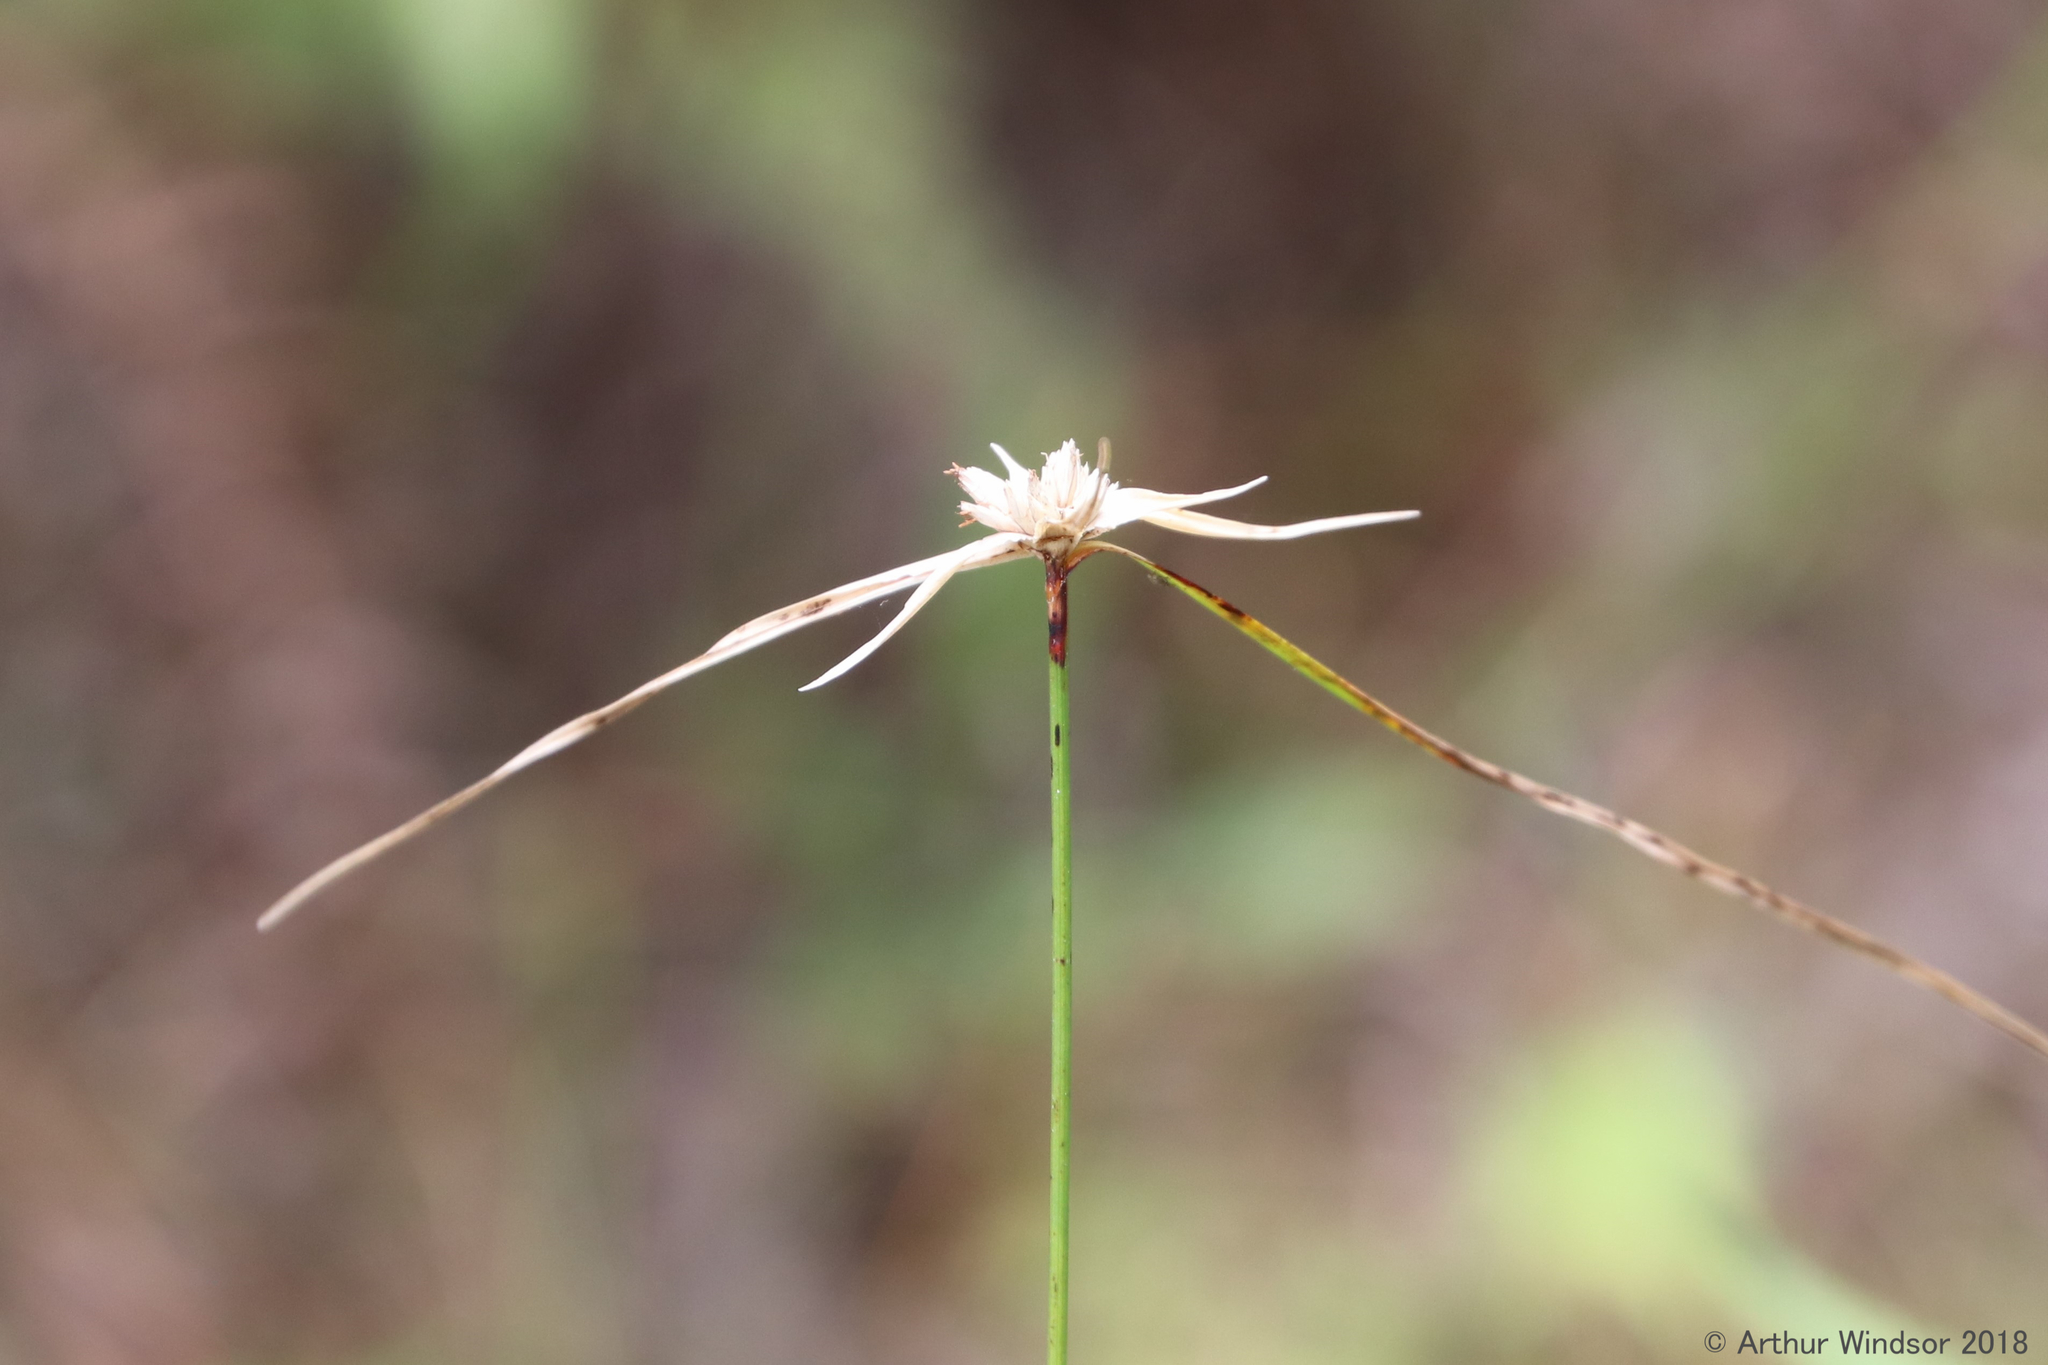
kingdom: Plantae
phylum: Tracheophyta
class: Liliopsida
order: Poales
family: Cyperaceae
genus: Rhynchospora
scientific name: Rhynchospora colorata
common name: Star sedge
